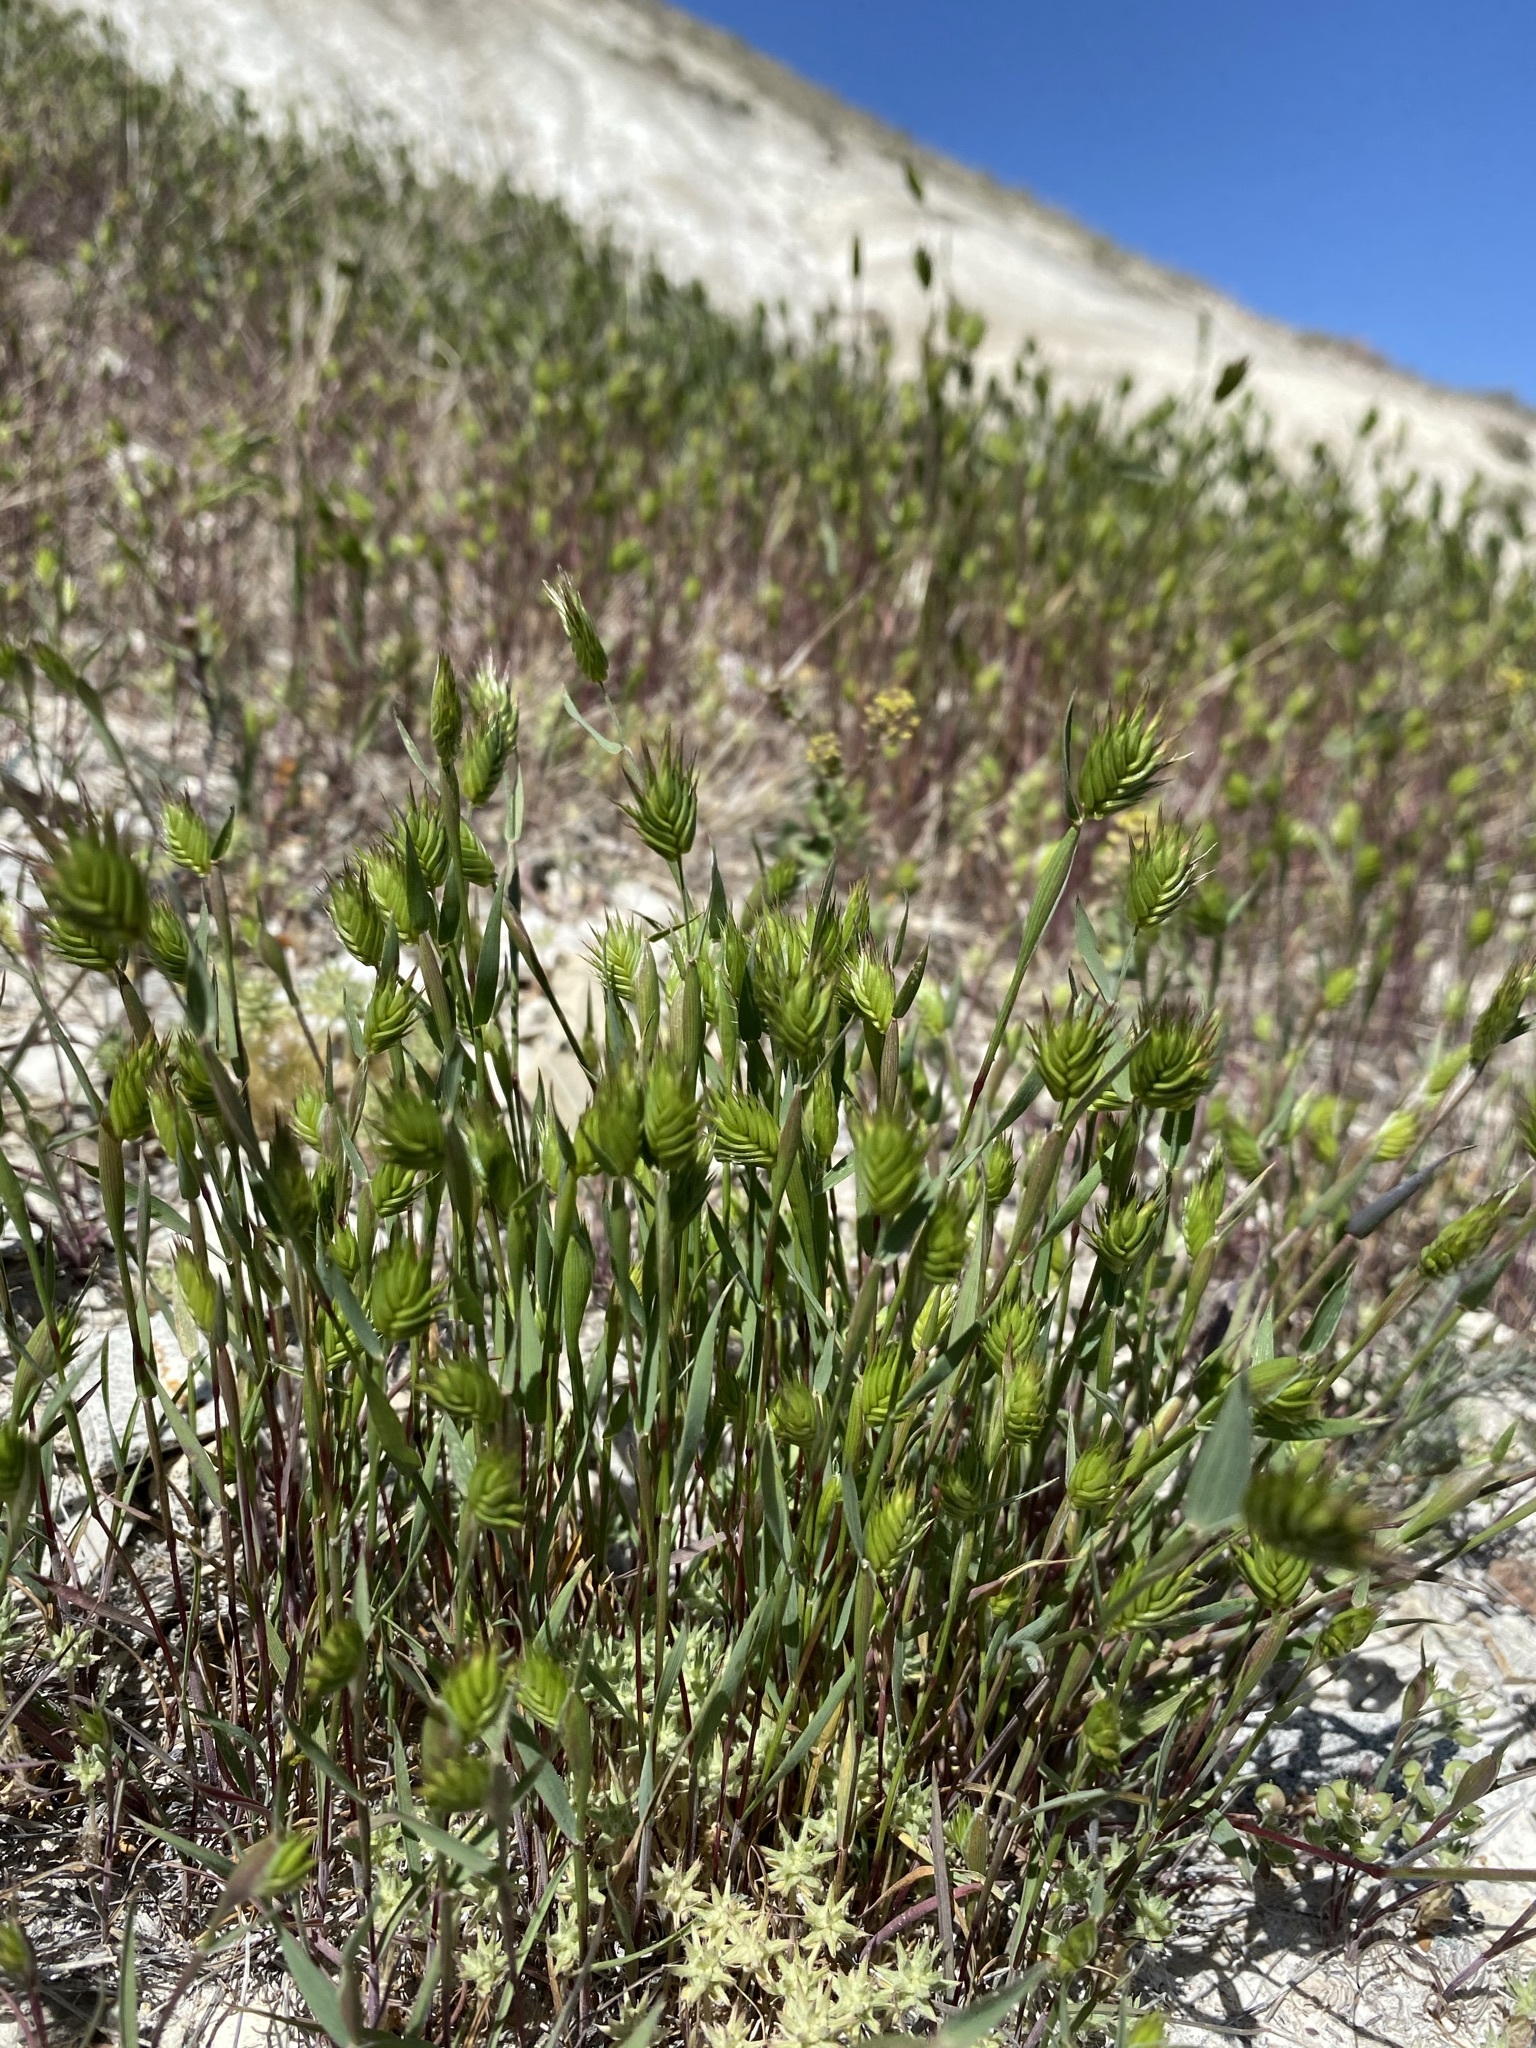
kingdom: Plantae
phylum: Tracheophyta
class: Liliopsida
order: Poales
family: Poaceae
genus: Eremopyrum
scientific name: Eremopyrum triticeum
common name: Annual wheatgrass
